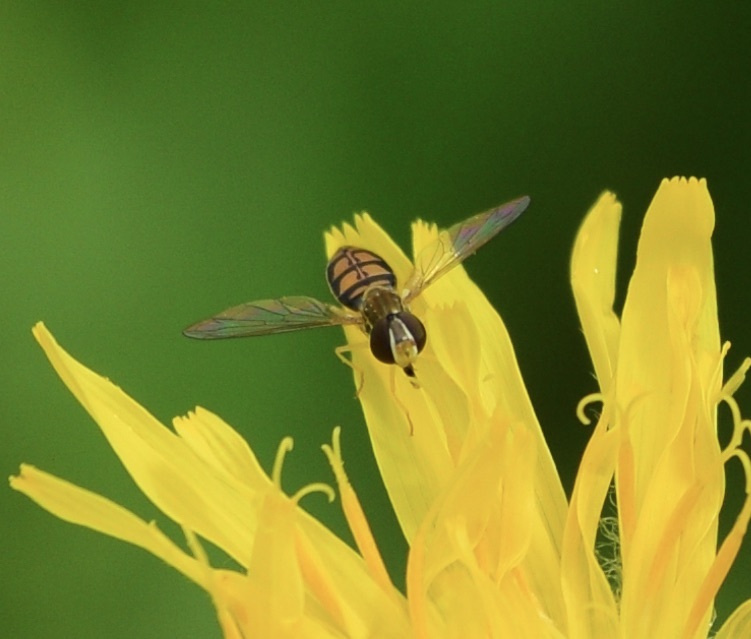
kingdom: Animalia
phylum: Arthropoda
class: Insecta
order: Diptera
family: Syrphidae
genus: Toxomerus
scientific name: Toxomerus marginatus
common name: Syrphid fly
